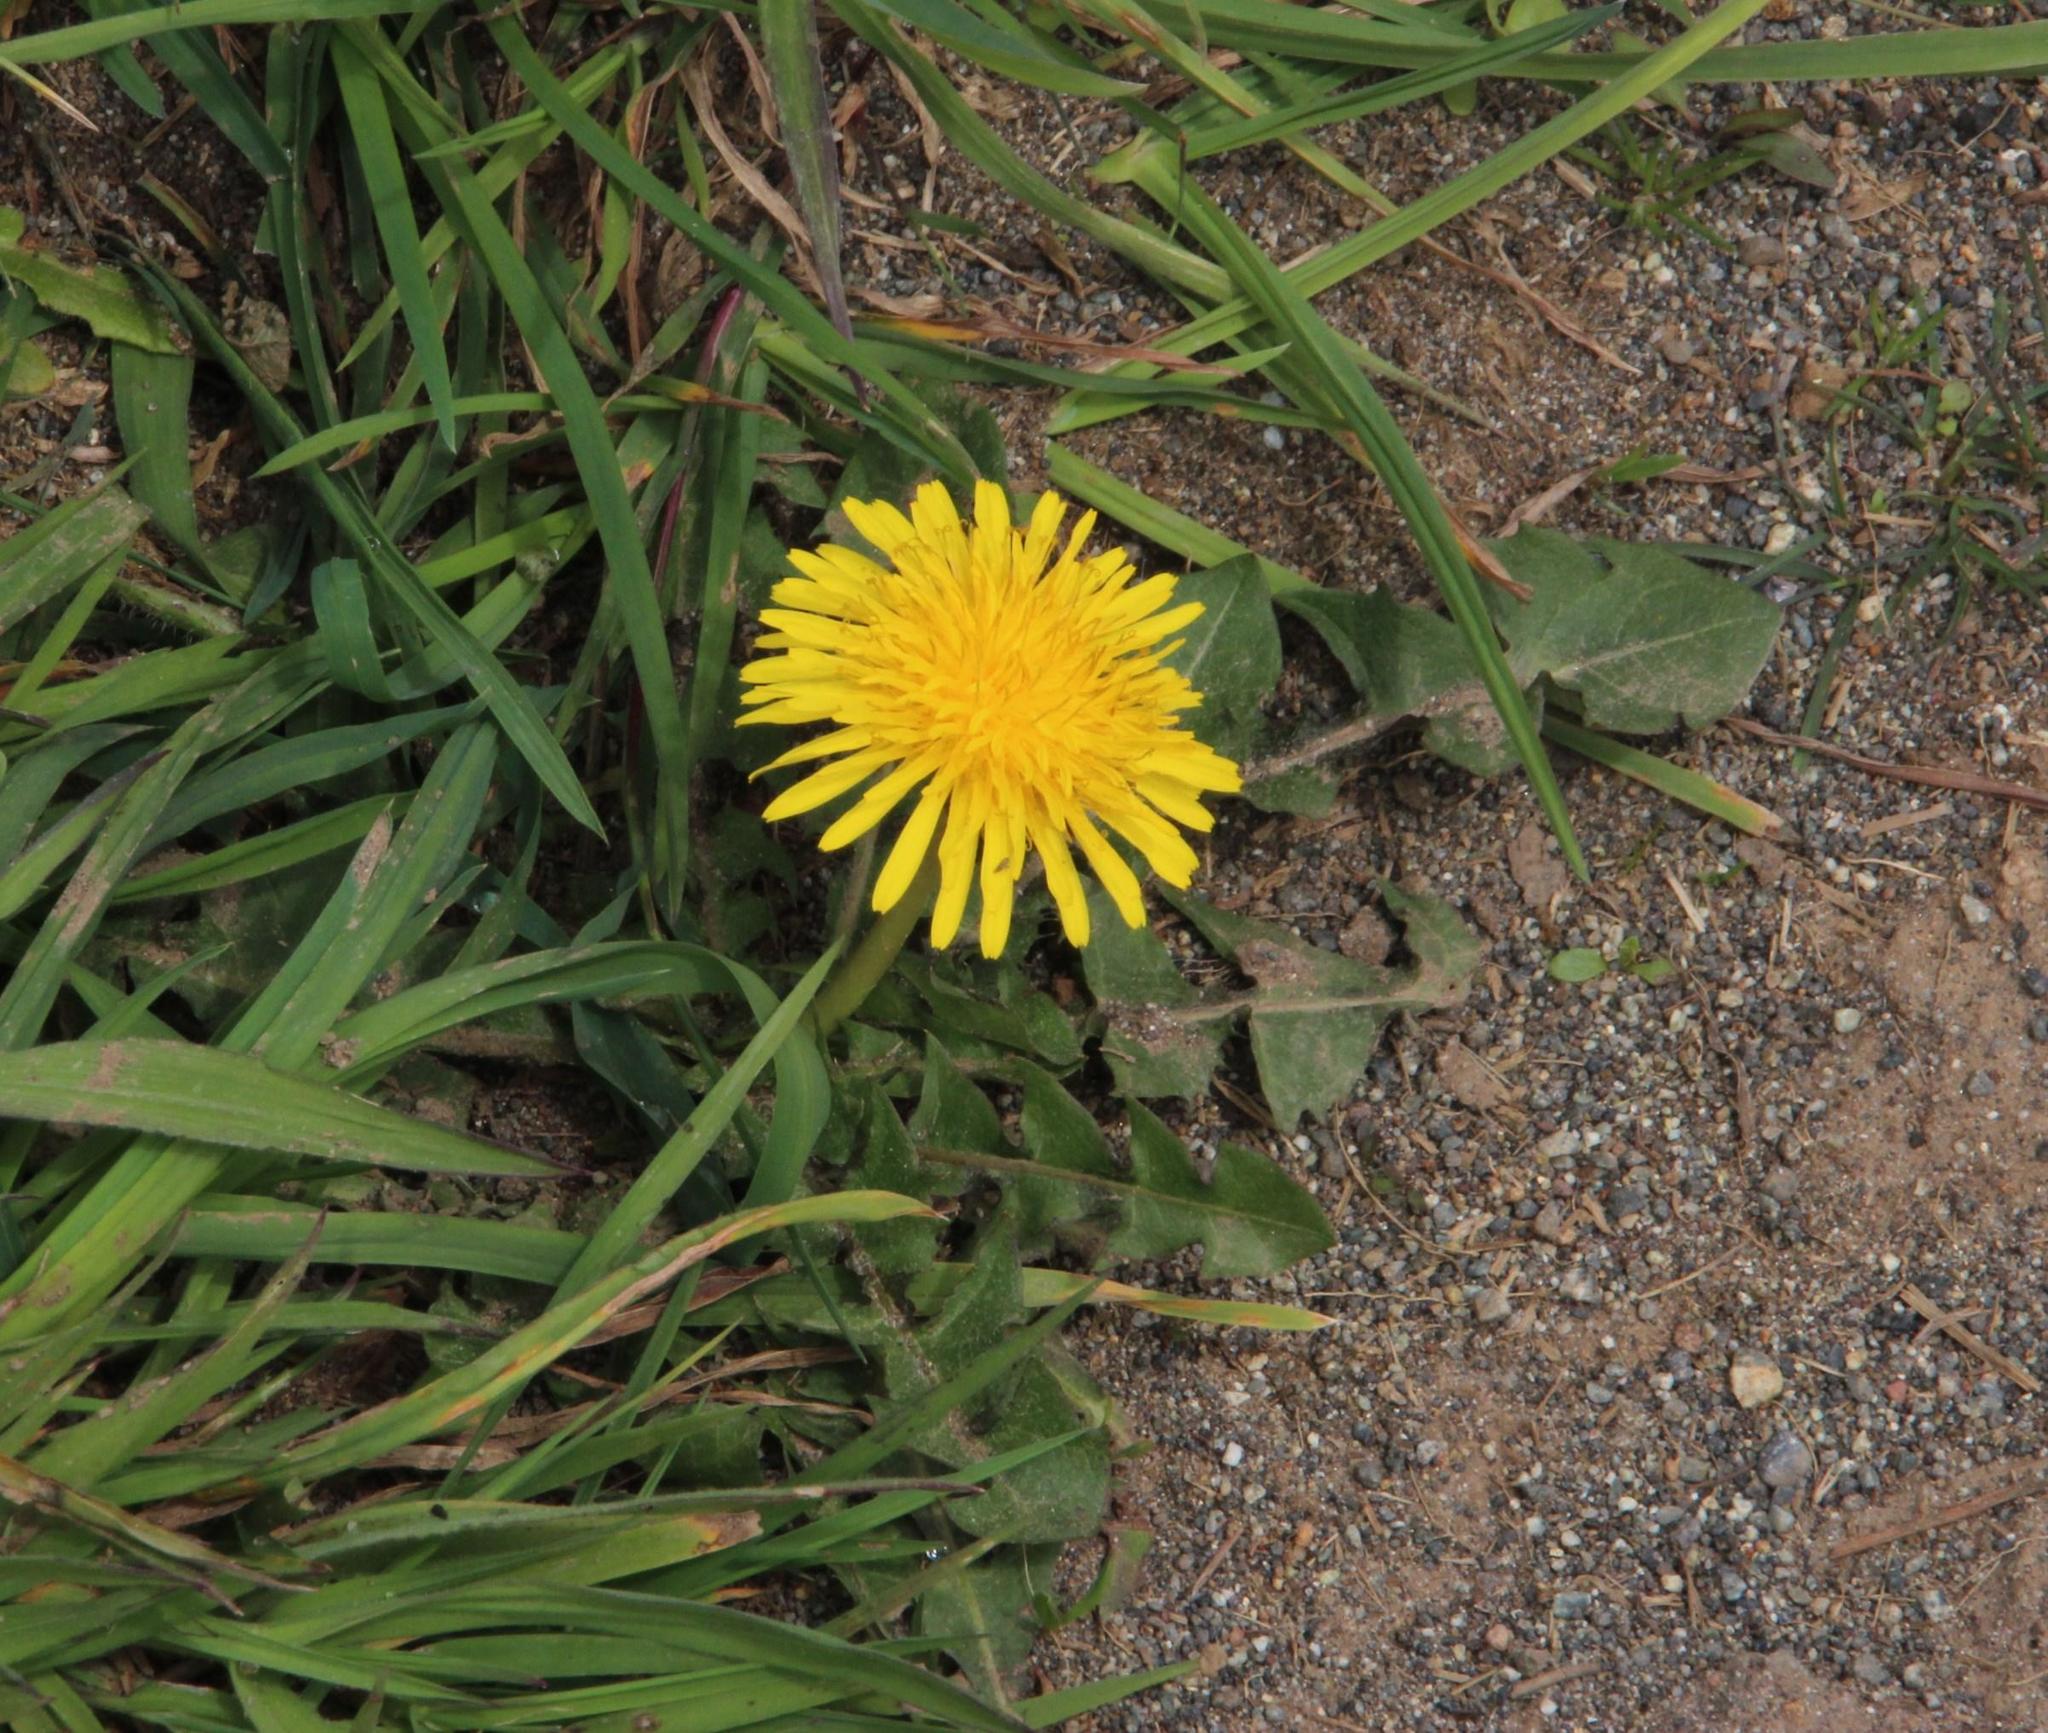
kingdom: Plantae
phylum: Tracheophyta
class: Magnoliopsida
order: Asterales
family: Asteraceae
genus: Taraxacum
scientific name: Taraxacum officinale
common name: Common dandelion
